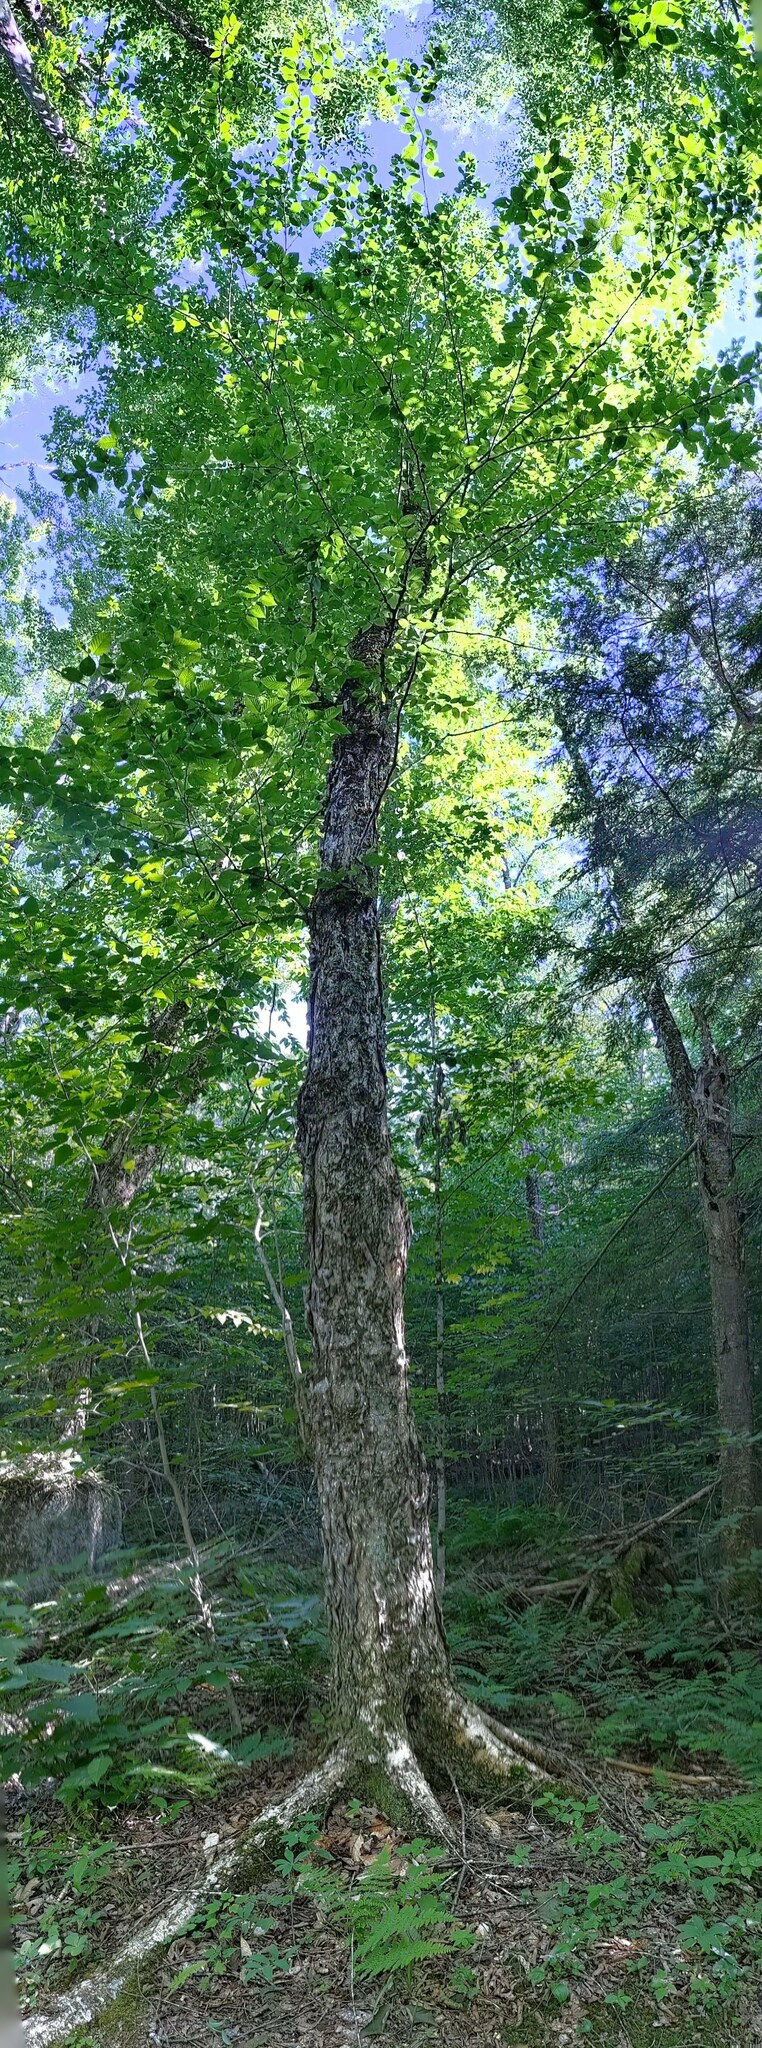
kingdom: Plantae
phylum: Tracheophyta
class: Magnoliopsida
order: Fagales
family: Betulaceae
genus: Betula
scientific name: Betula alleghaniensis
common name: Yellow birch
